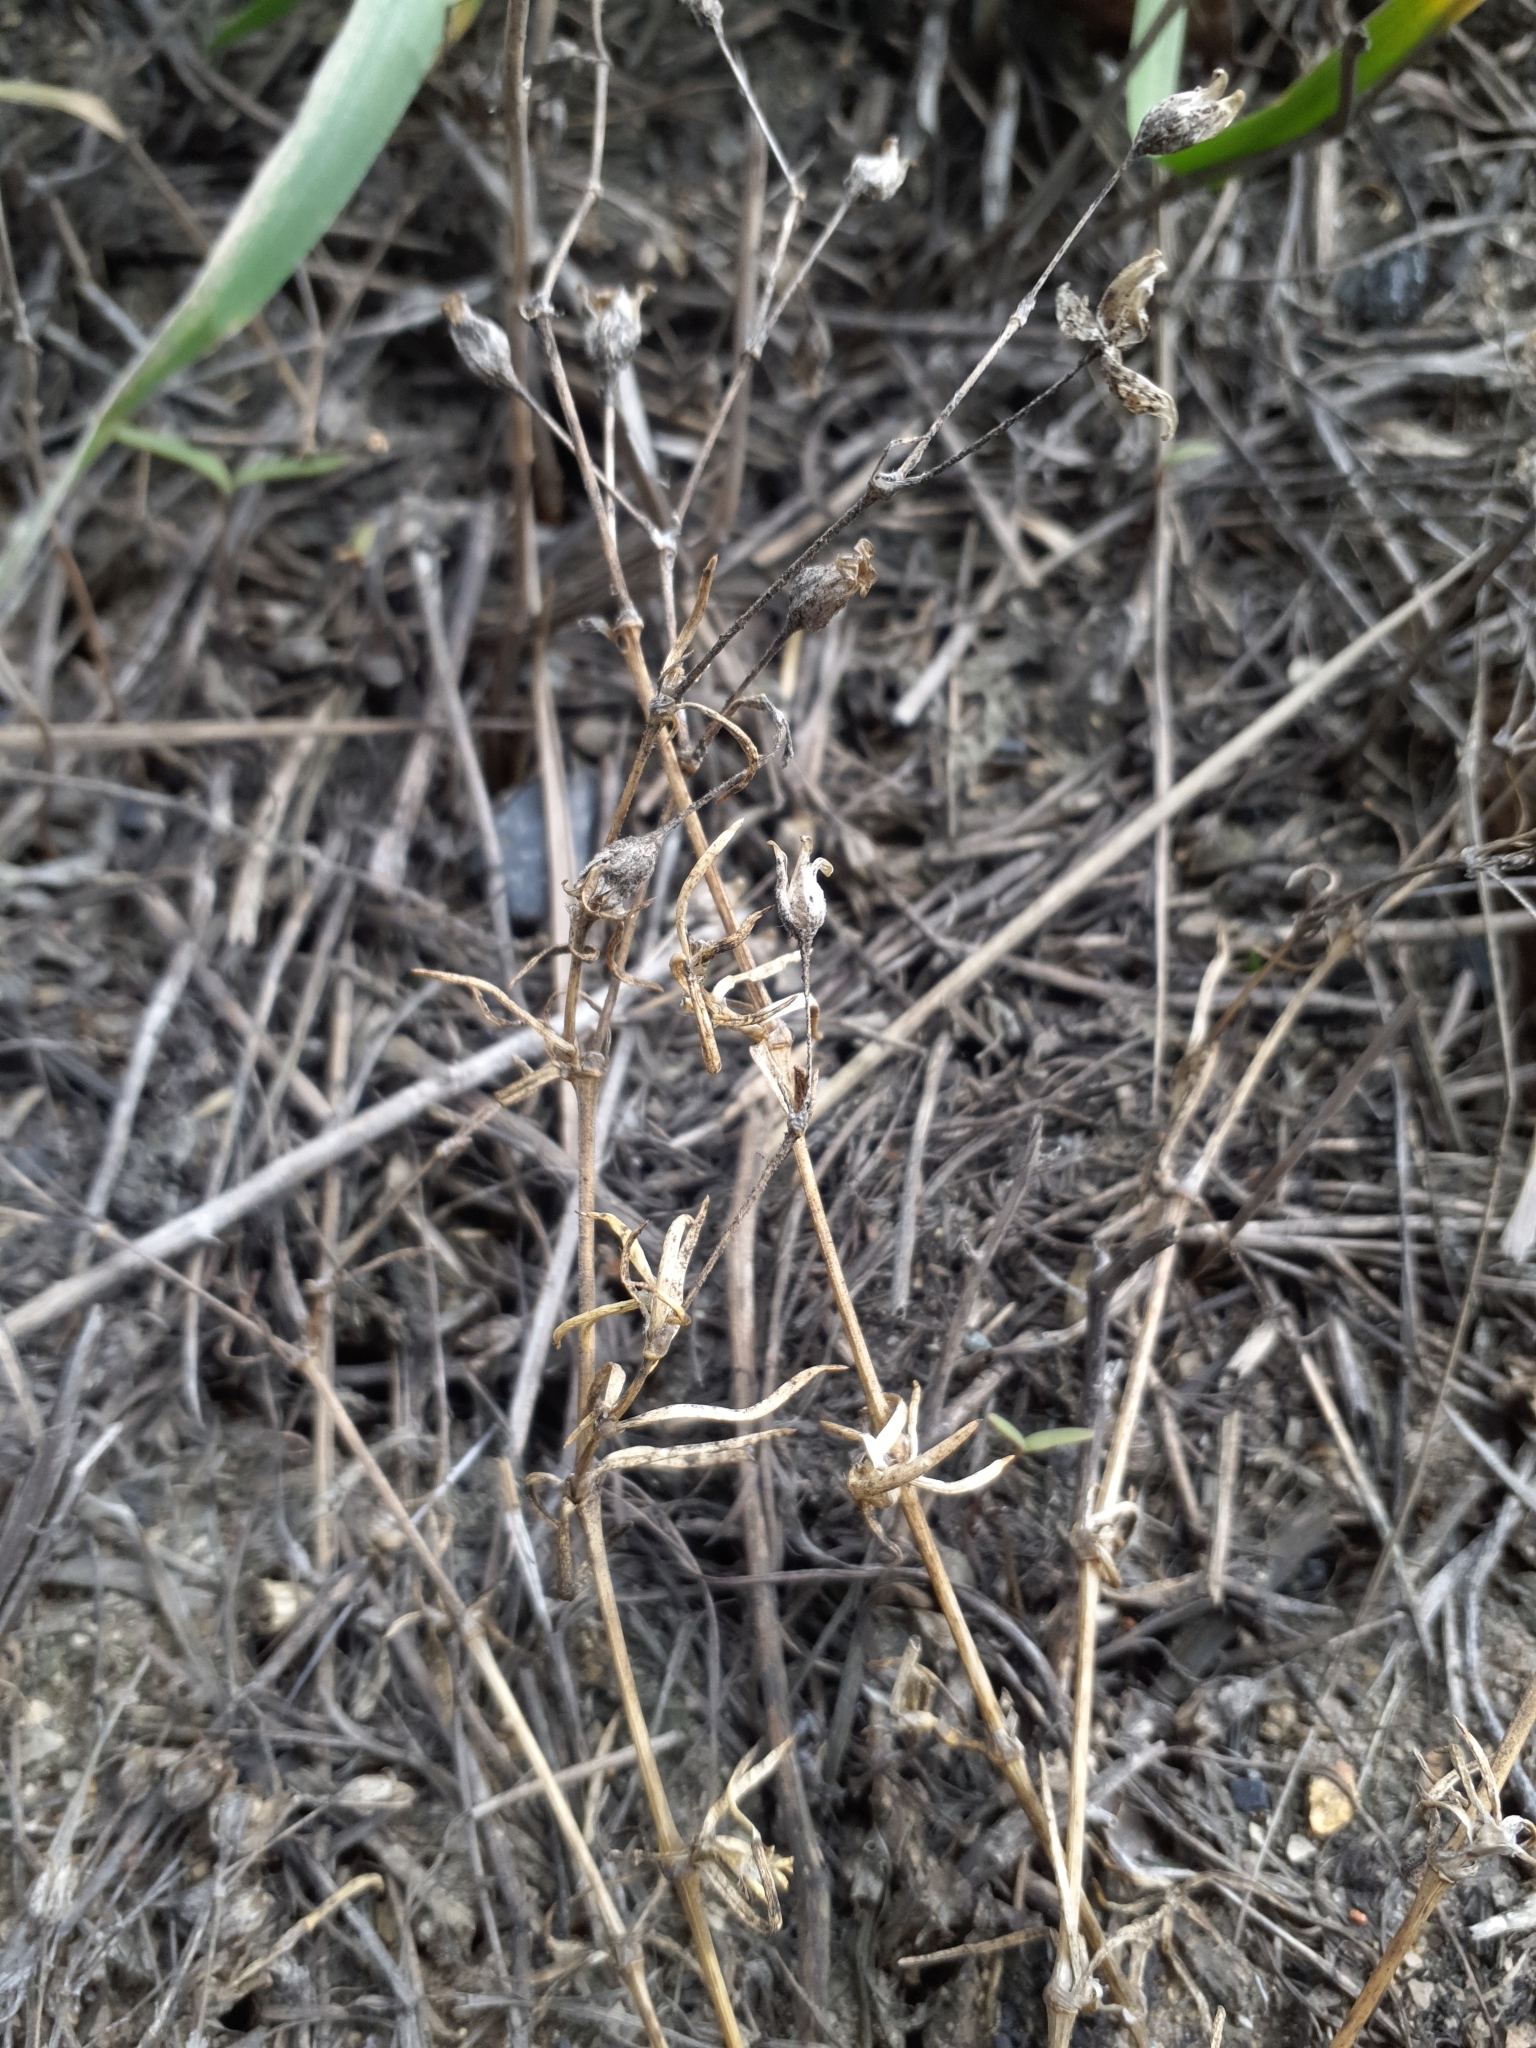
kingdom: Plantae
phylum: Tracheophyta
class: Magnoliopsida
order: Caryophyllales
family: Caryophyllaceae
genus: Spergularia
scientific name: Spergularia media
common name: Greater sea-spurrey
